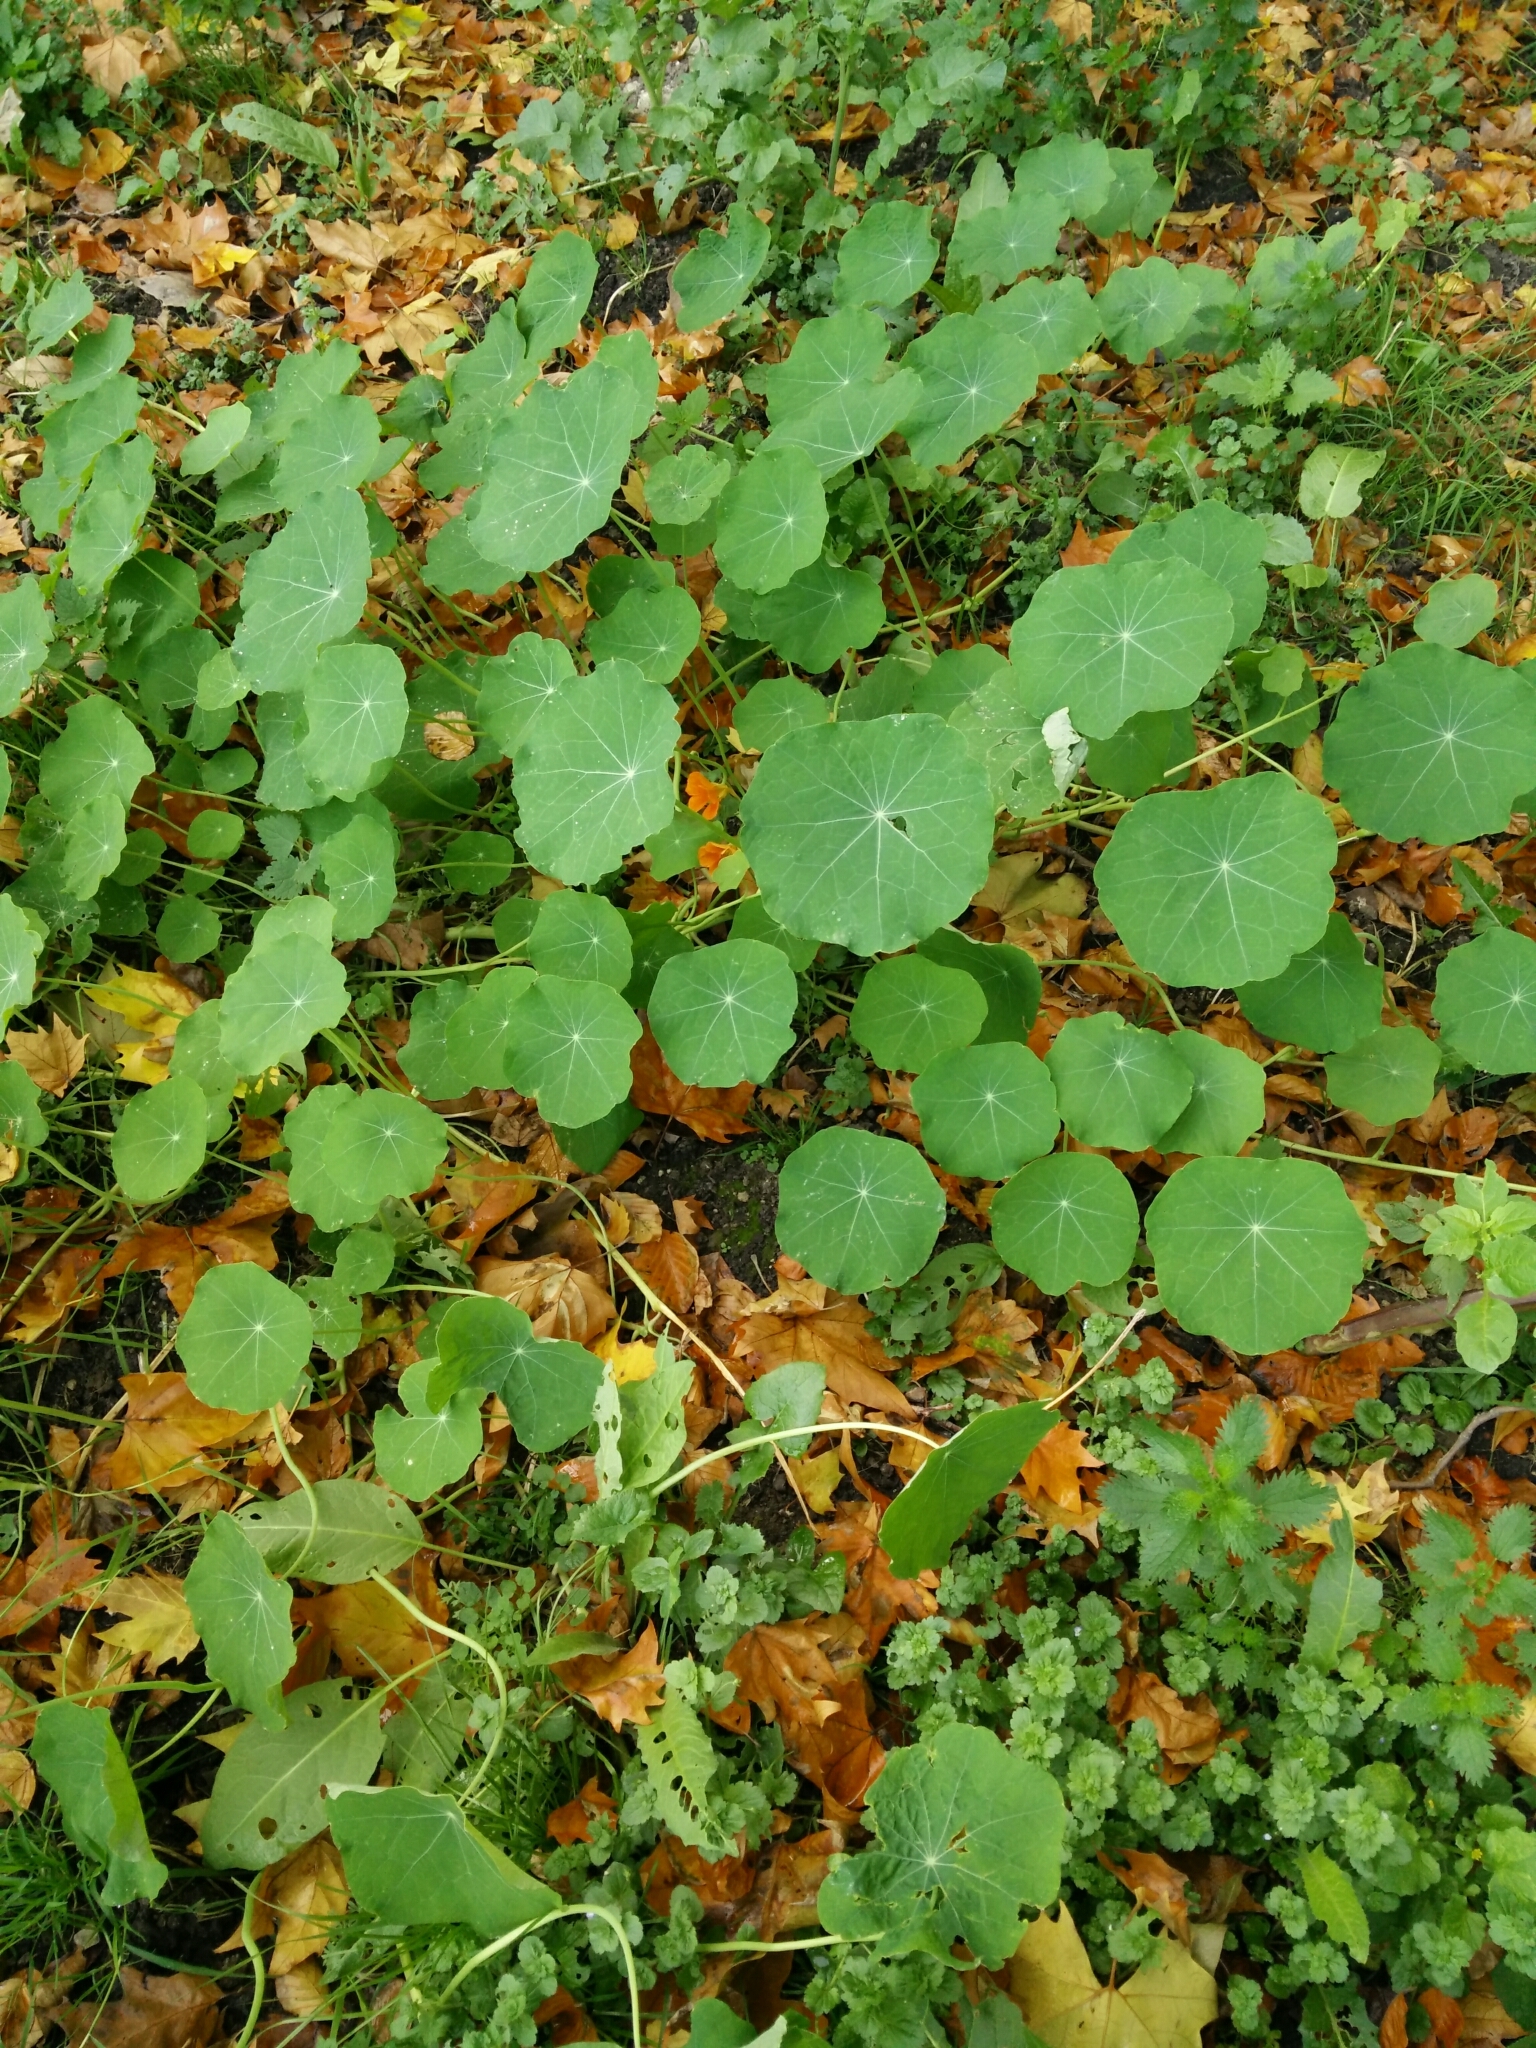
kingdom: Plantae
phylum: Tracheophyta
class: Magnoliopsida
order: Brassicales
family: Tropaeolaceae
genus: Tropaeolum
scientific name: Tropaeolum majus
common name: Nasturtium
